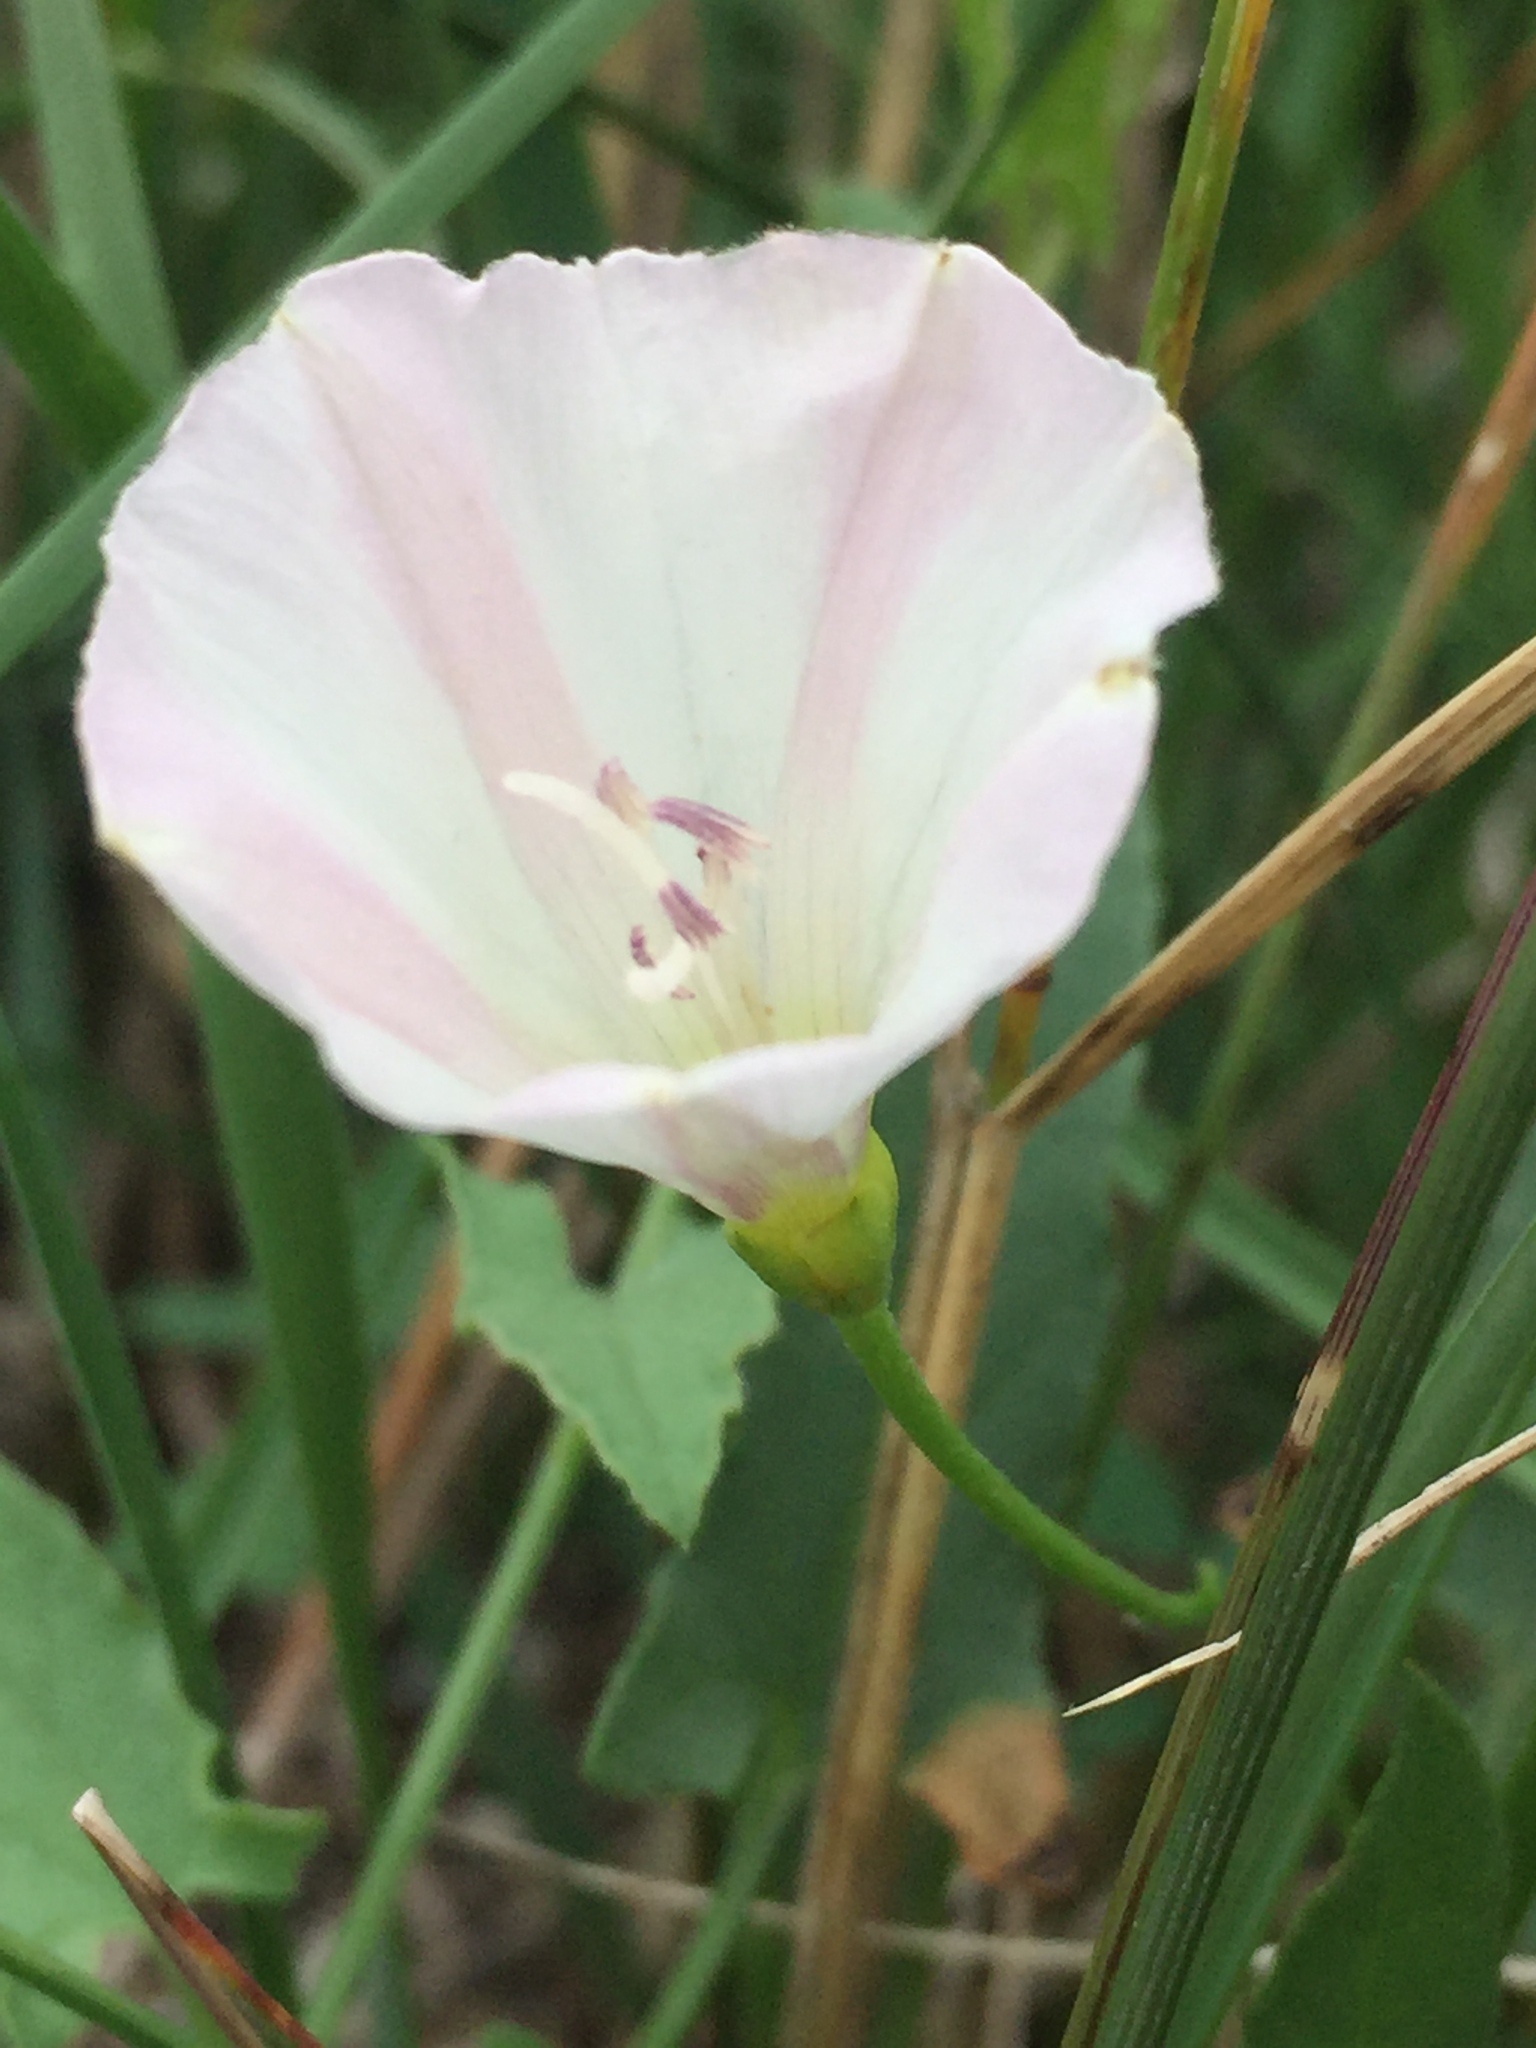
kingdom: Plantae
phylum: Tracheophyta
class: Magnoliopsida
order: Solanales
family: Convolvulaceae
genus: Convolvulus
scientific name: Convolvulus arvensis
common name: Field bindweed
